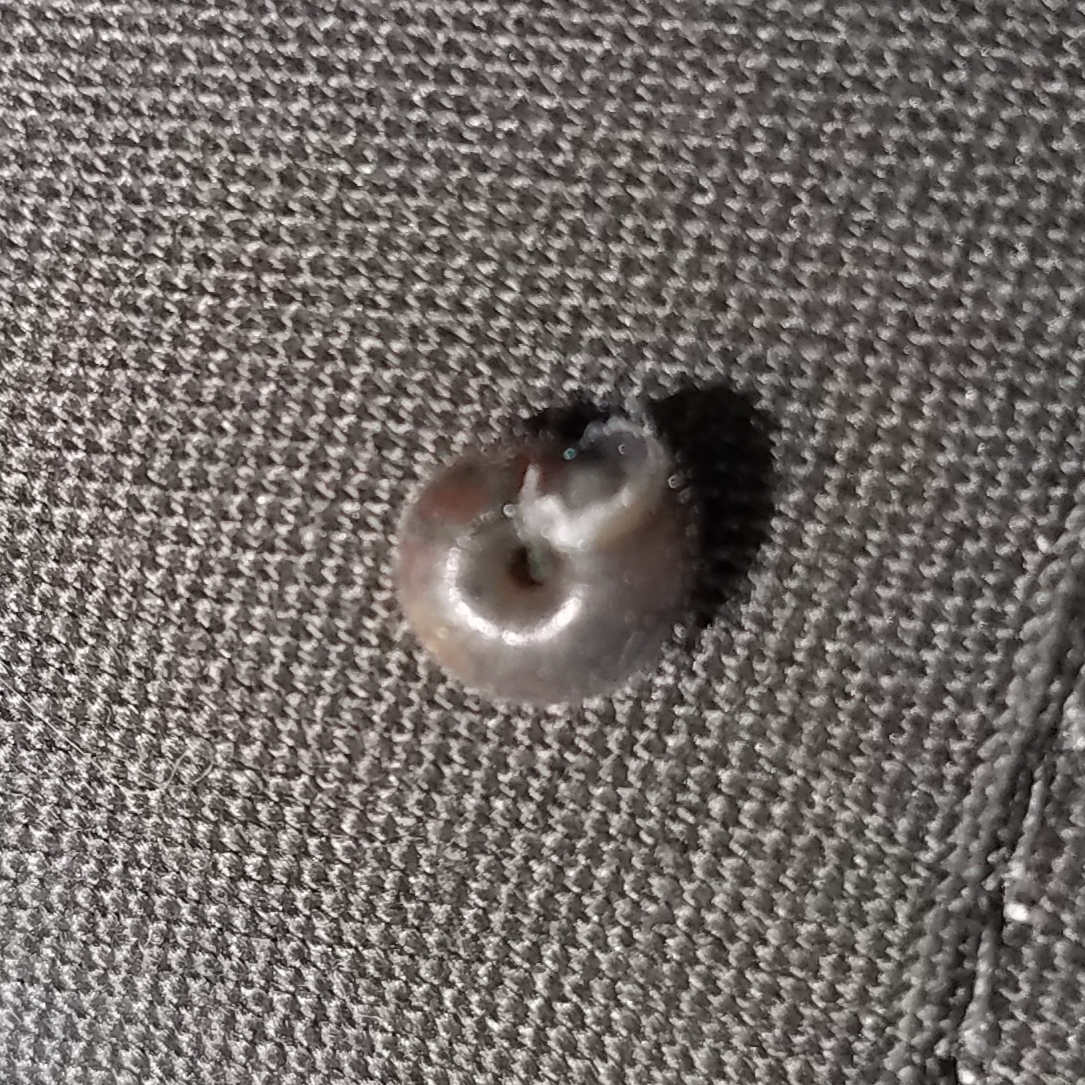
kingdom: Animalia
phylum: Mollusca
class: Gastropoda
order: Stylommatophora
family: Hygromiidae
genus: Trochulus
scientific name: Trochulus hispidus
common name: Hairy snail
